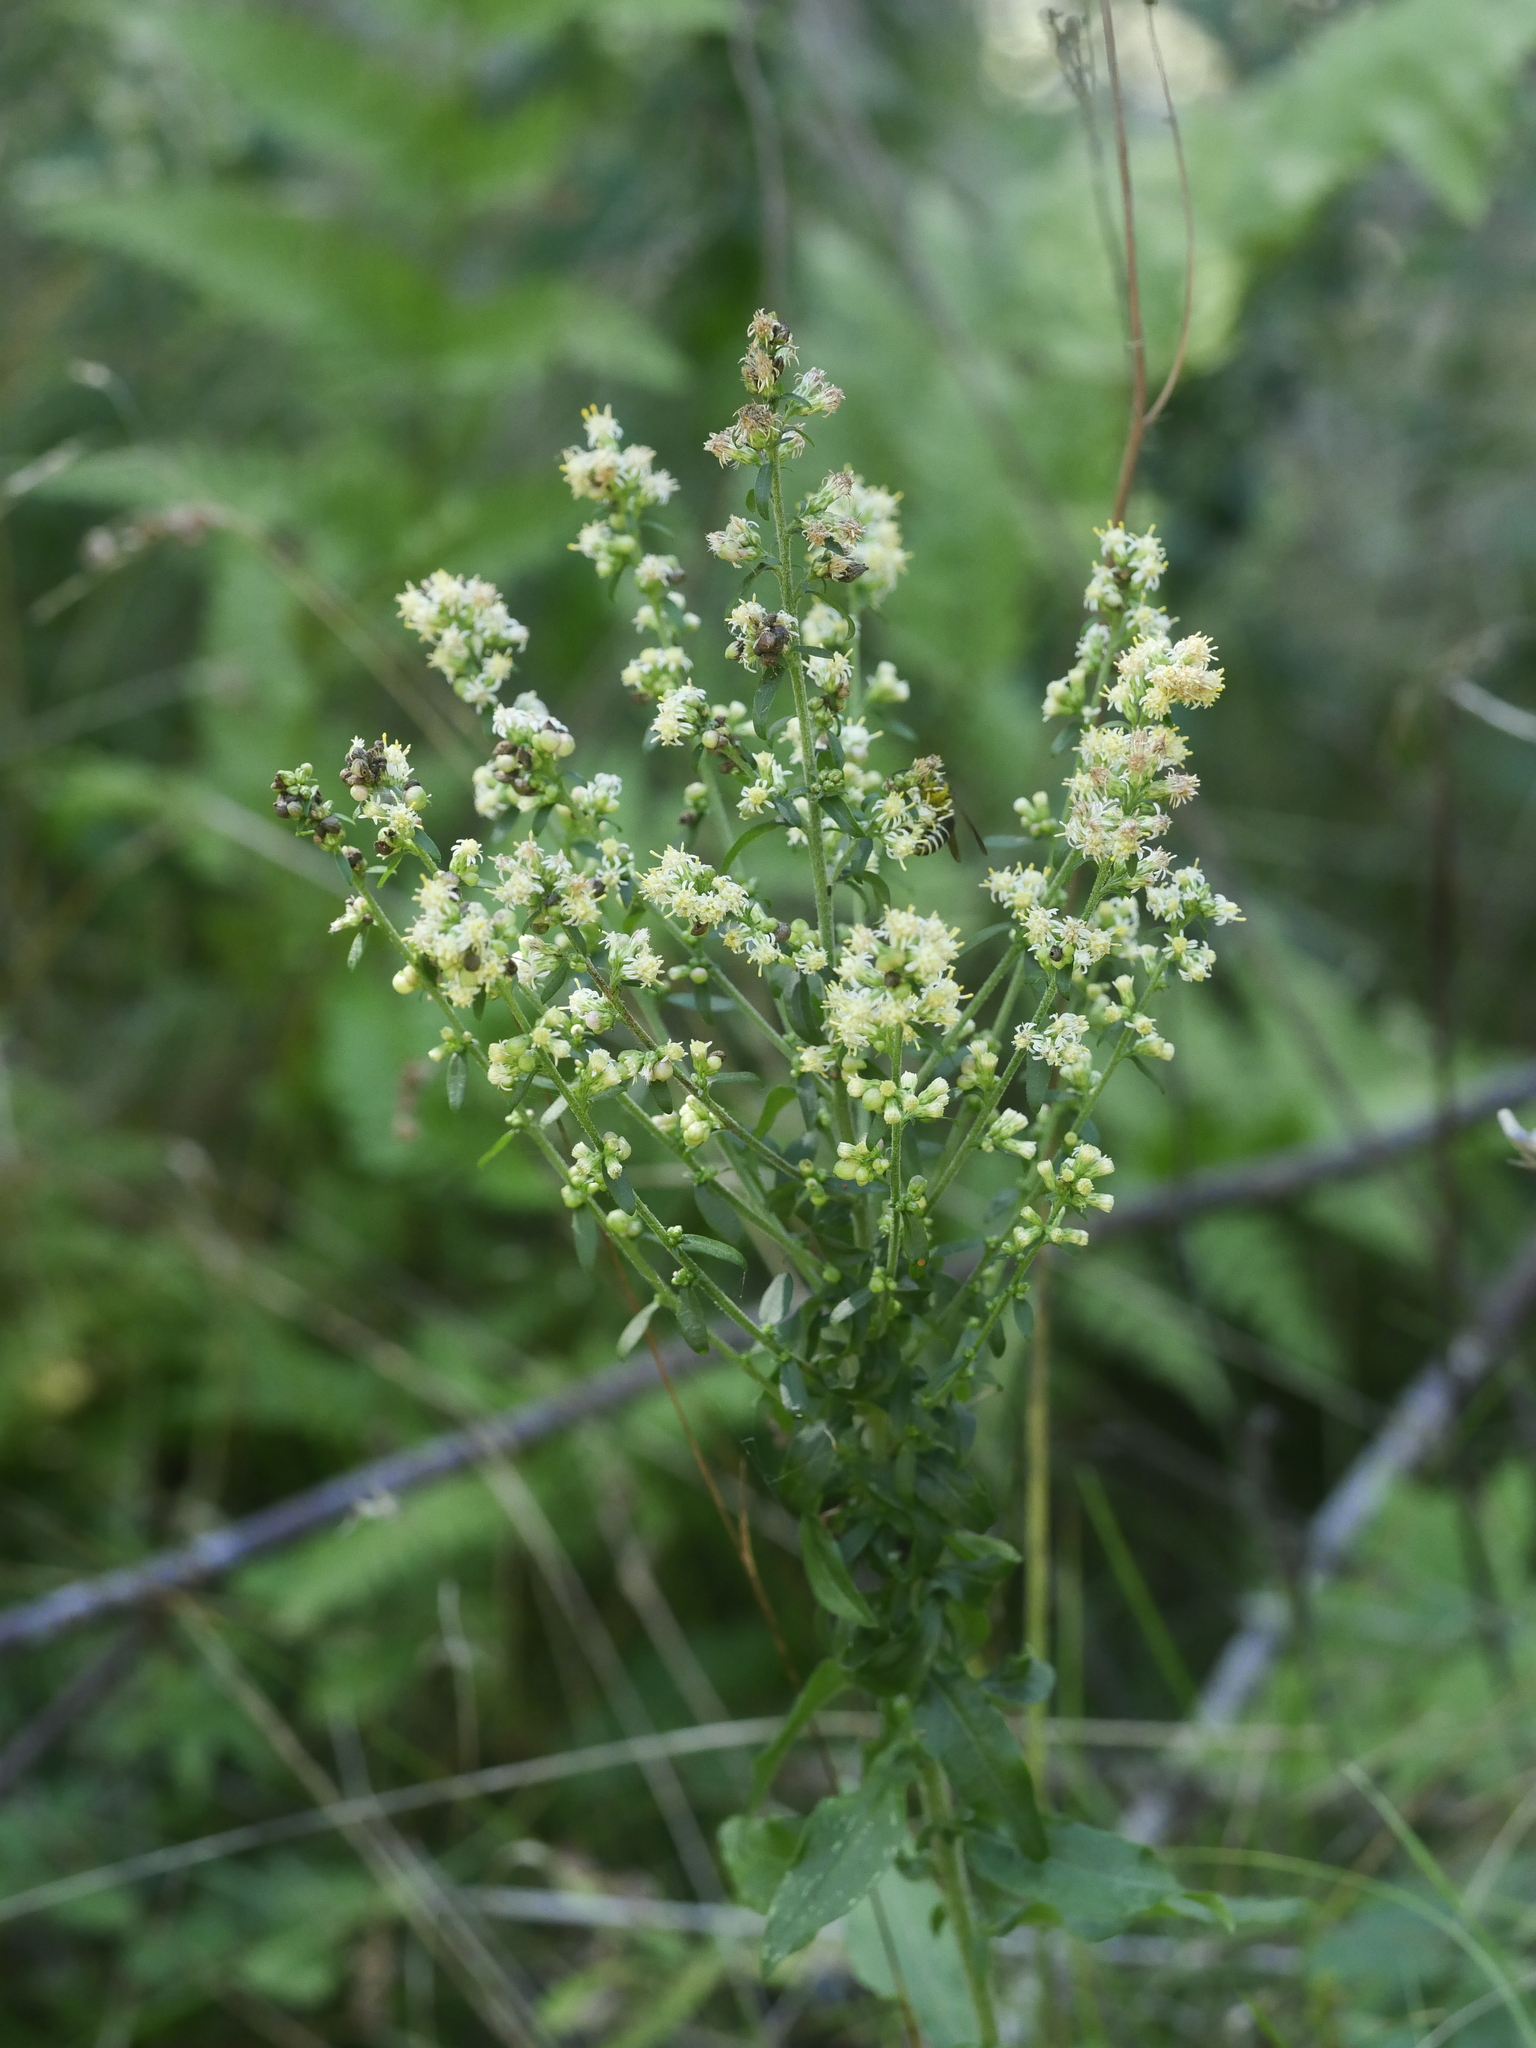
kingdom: Plantae
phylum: Tracheophyta
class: Magnoliopsida
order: Asterales
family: Asteraceae
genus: Solidago
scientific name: Solidago bicolor
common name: Silverrod
